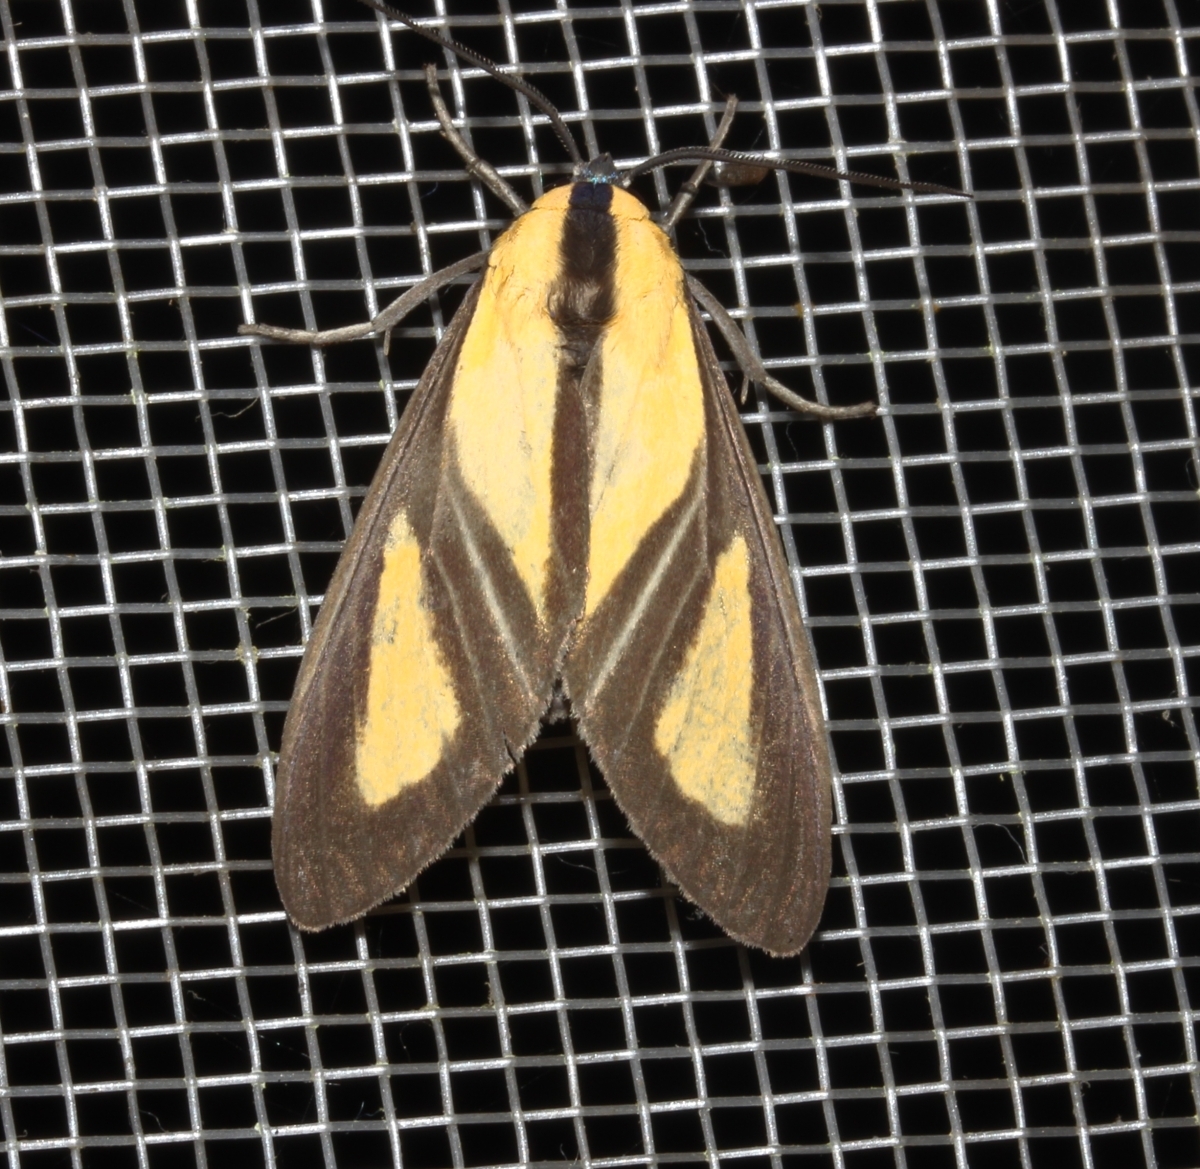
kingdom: Animalia
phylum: Arthropoda
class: Insecta
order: Lepidoptera
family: Erebidae
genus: Xanthoarctia
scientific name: Xanthoarctia pseudameoides
